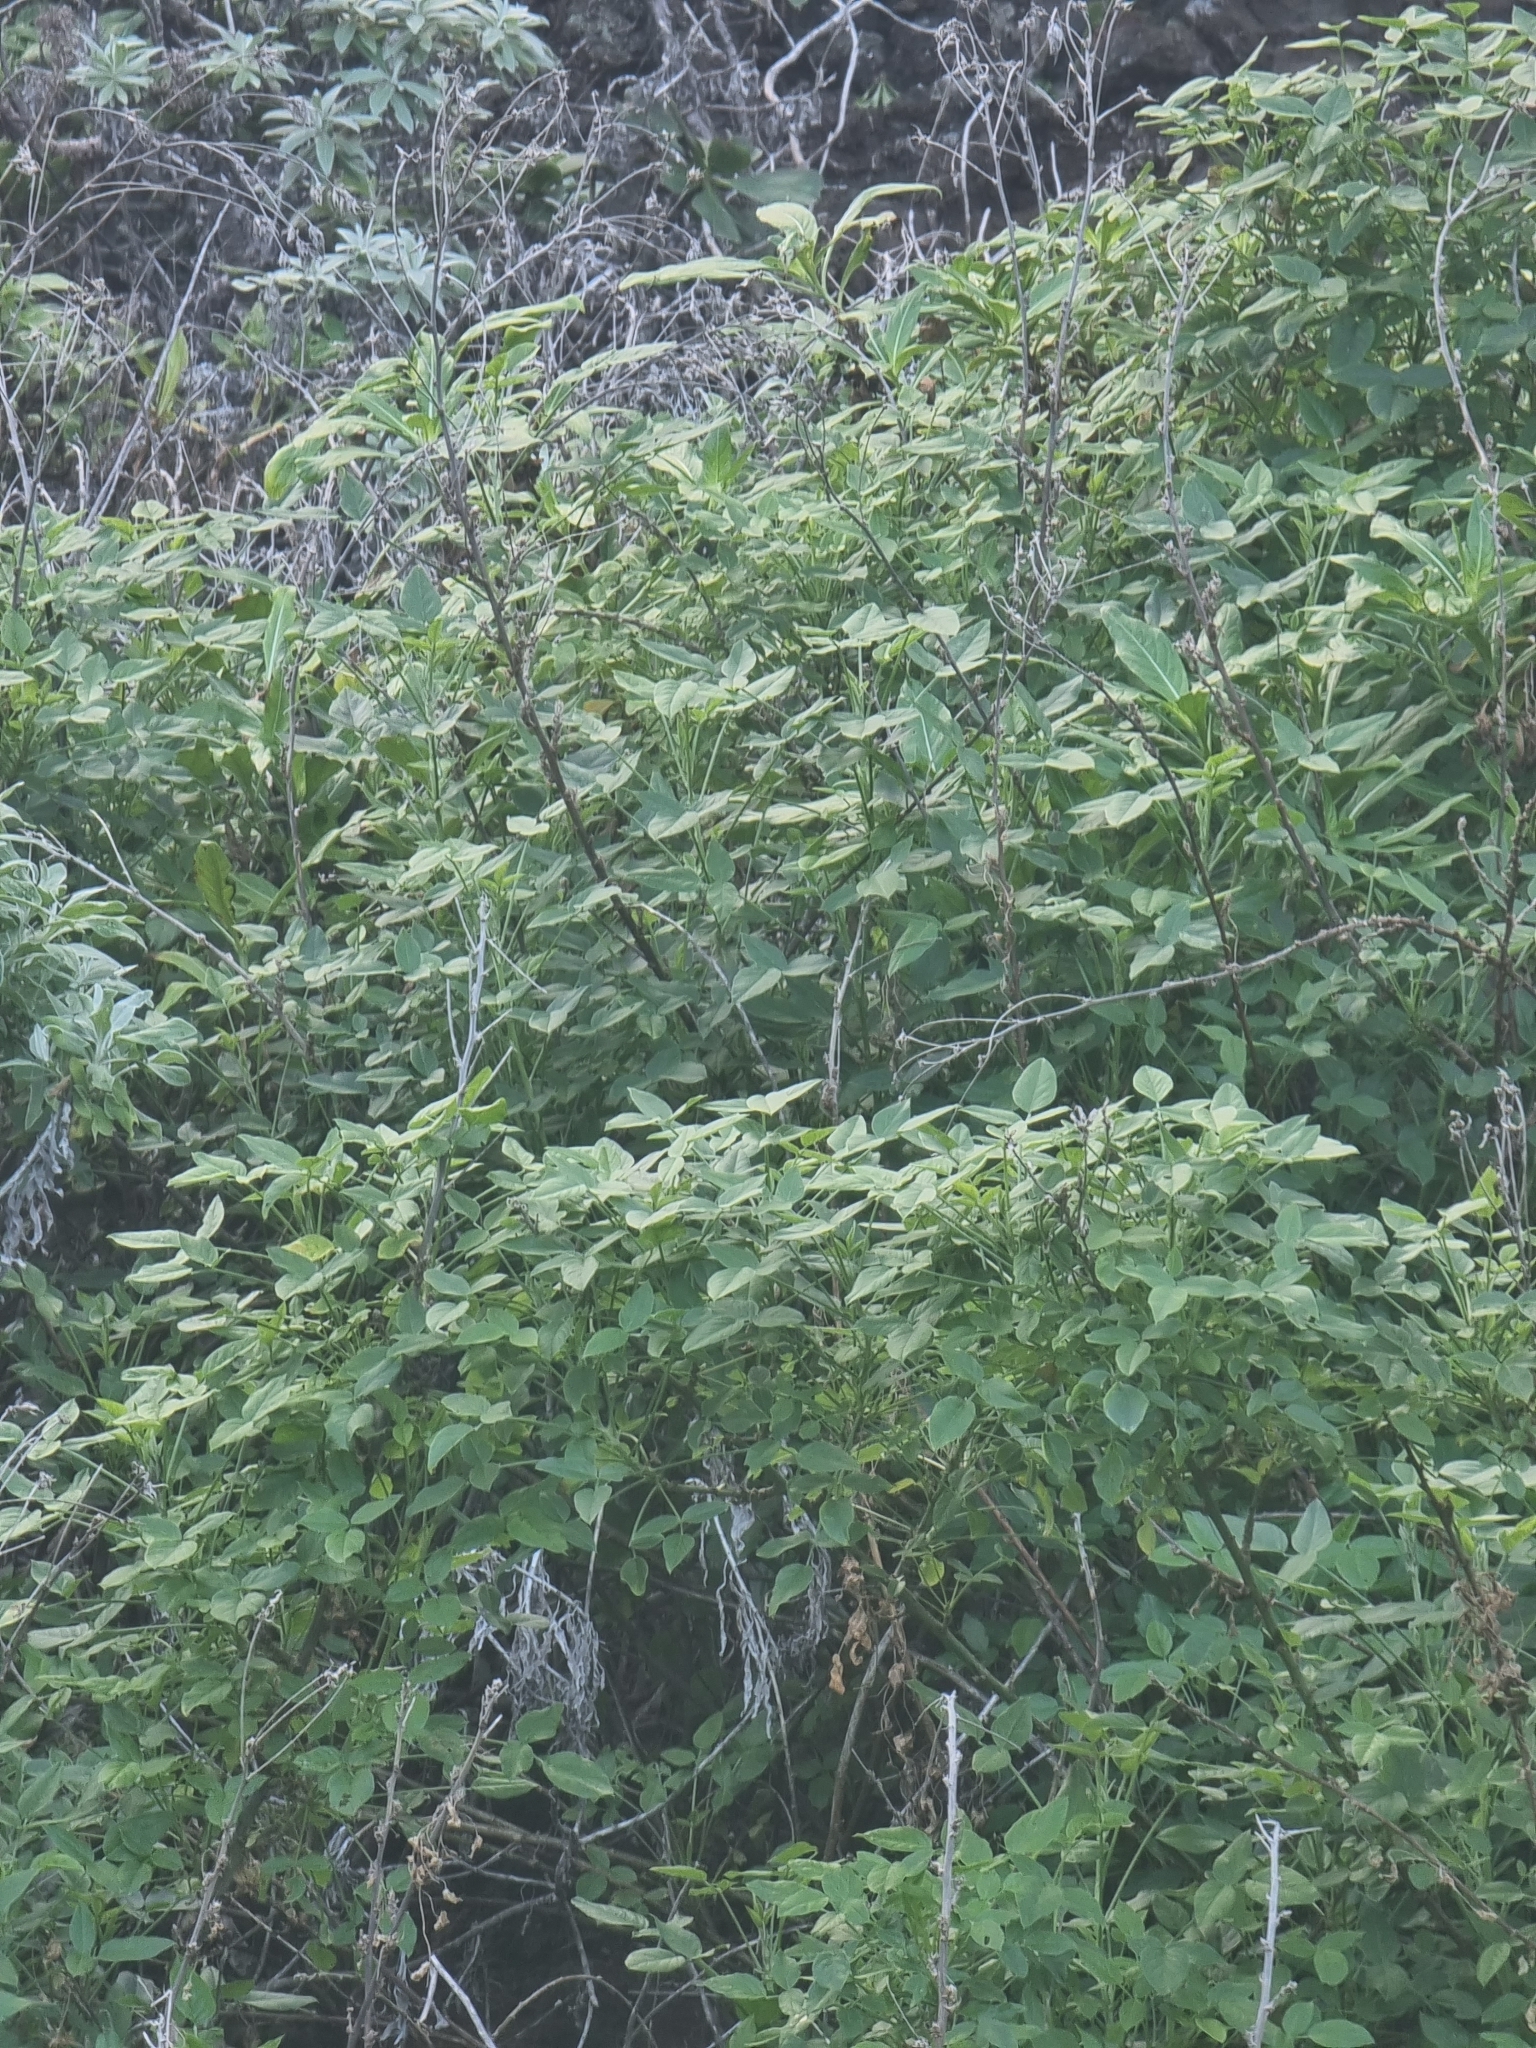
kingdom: Plantae
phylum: Tracheophyta
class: Magnoliopsida
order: Fabales
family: Fabaceae
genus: Bituminaria
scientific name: Bituminaria bituminosa
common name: Arabian pea
